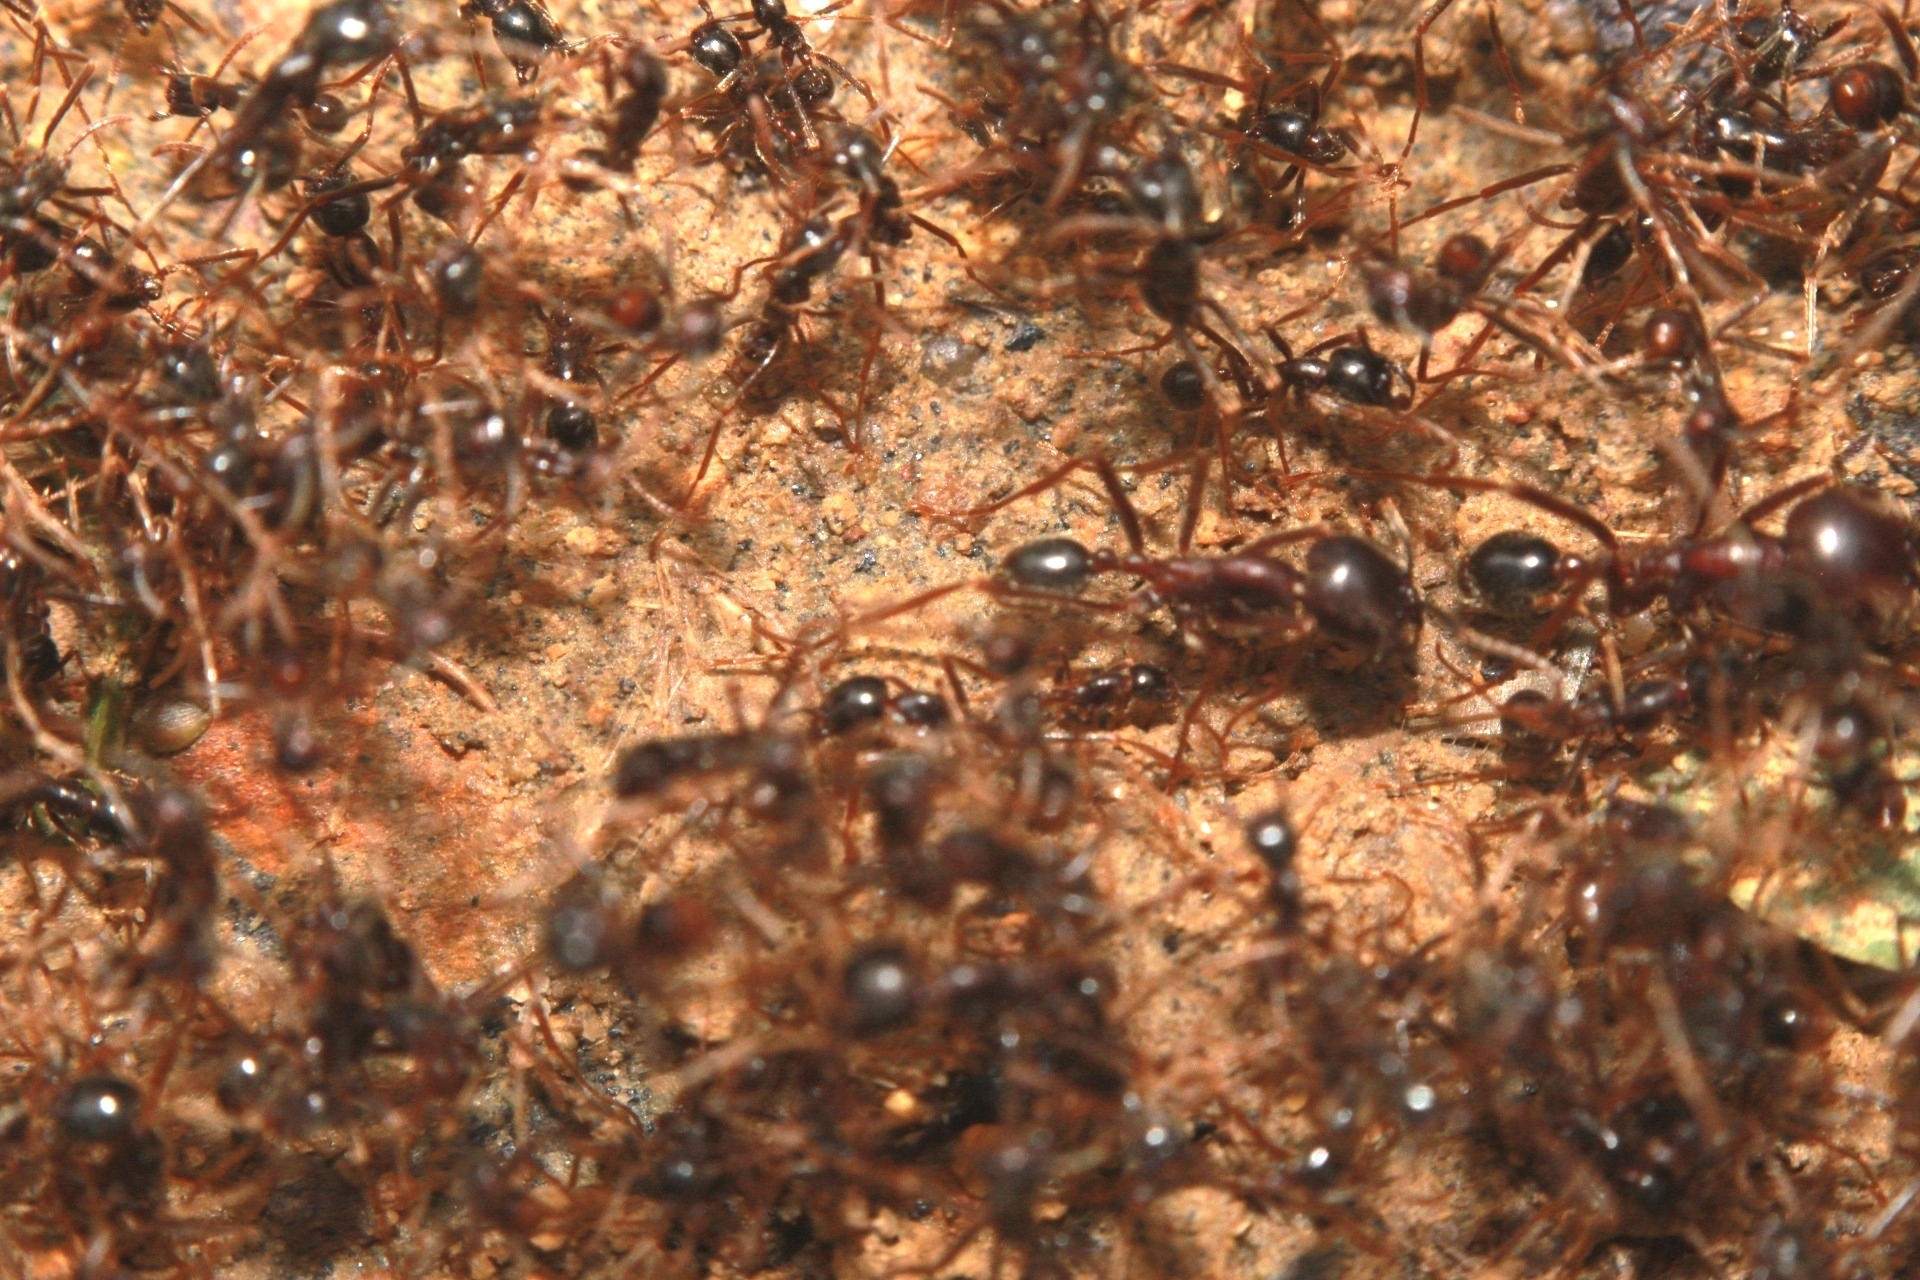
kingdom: Animalia
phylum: Arthropoda
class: Insecta
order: Hymenoptera
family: Formicidae
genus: Labidus
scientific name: Labidus praedator
